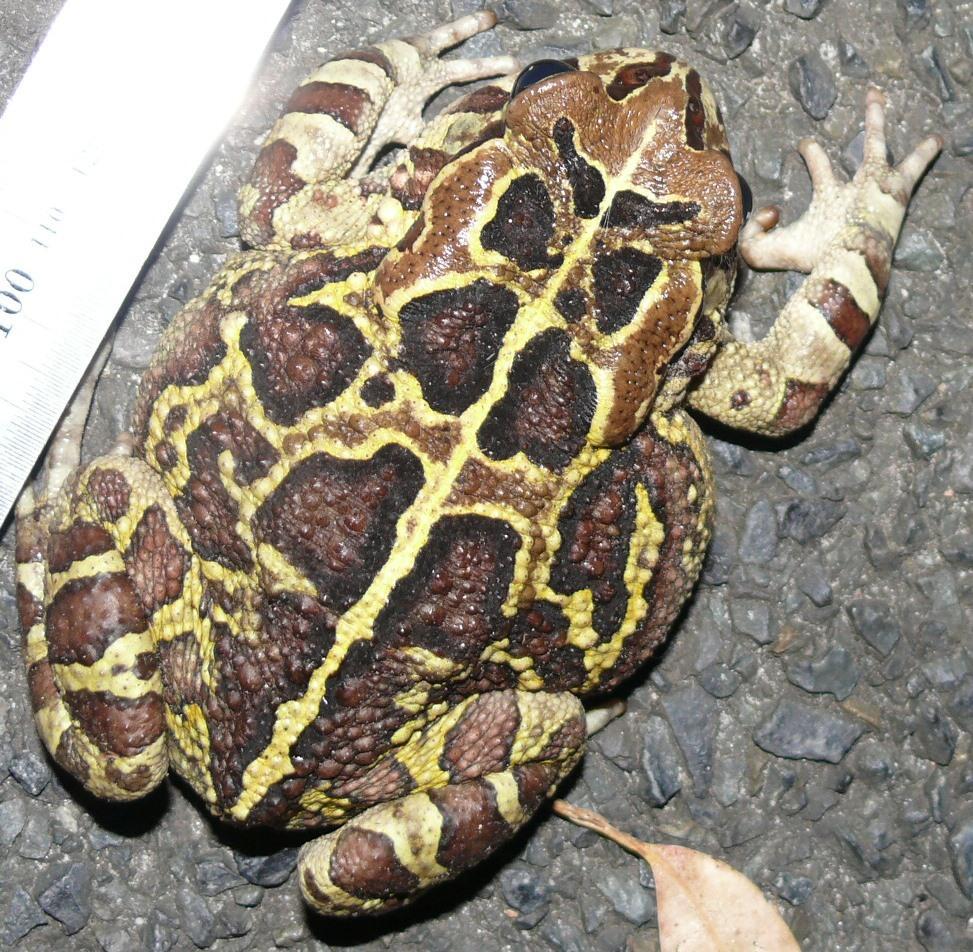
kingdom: Animalia
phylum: Chordata
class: Amphibia
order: Anura
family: Bufonidae
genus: Sclerophrys
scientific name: Sclerophrys pantherina
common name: Panther toad
